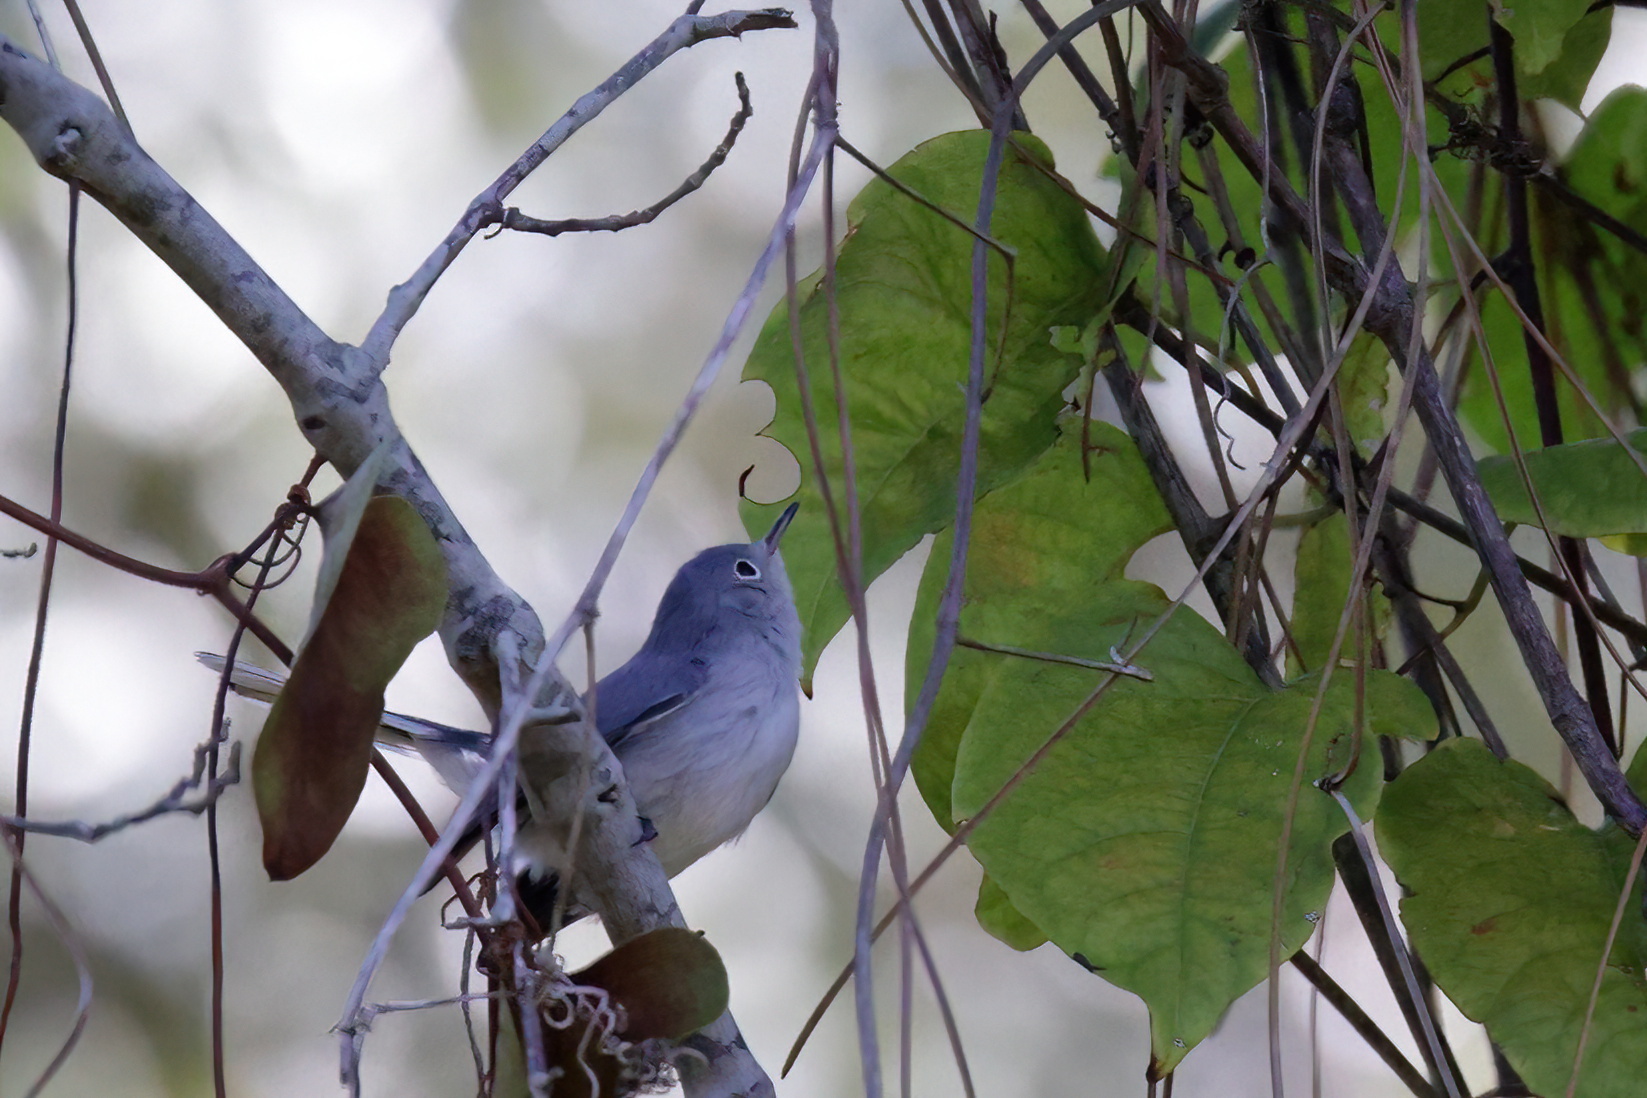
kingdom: Animalia
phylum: Chordata
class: Aves
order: Passeriformes
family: Polioptilidae
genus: Polioptila
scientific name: Polioptila caerulea
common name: Blue-gray gnatcatcher
